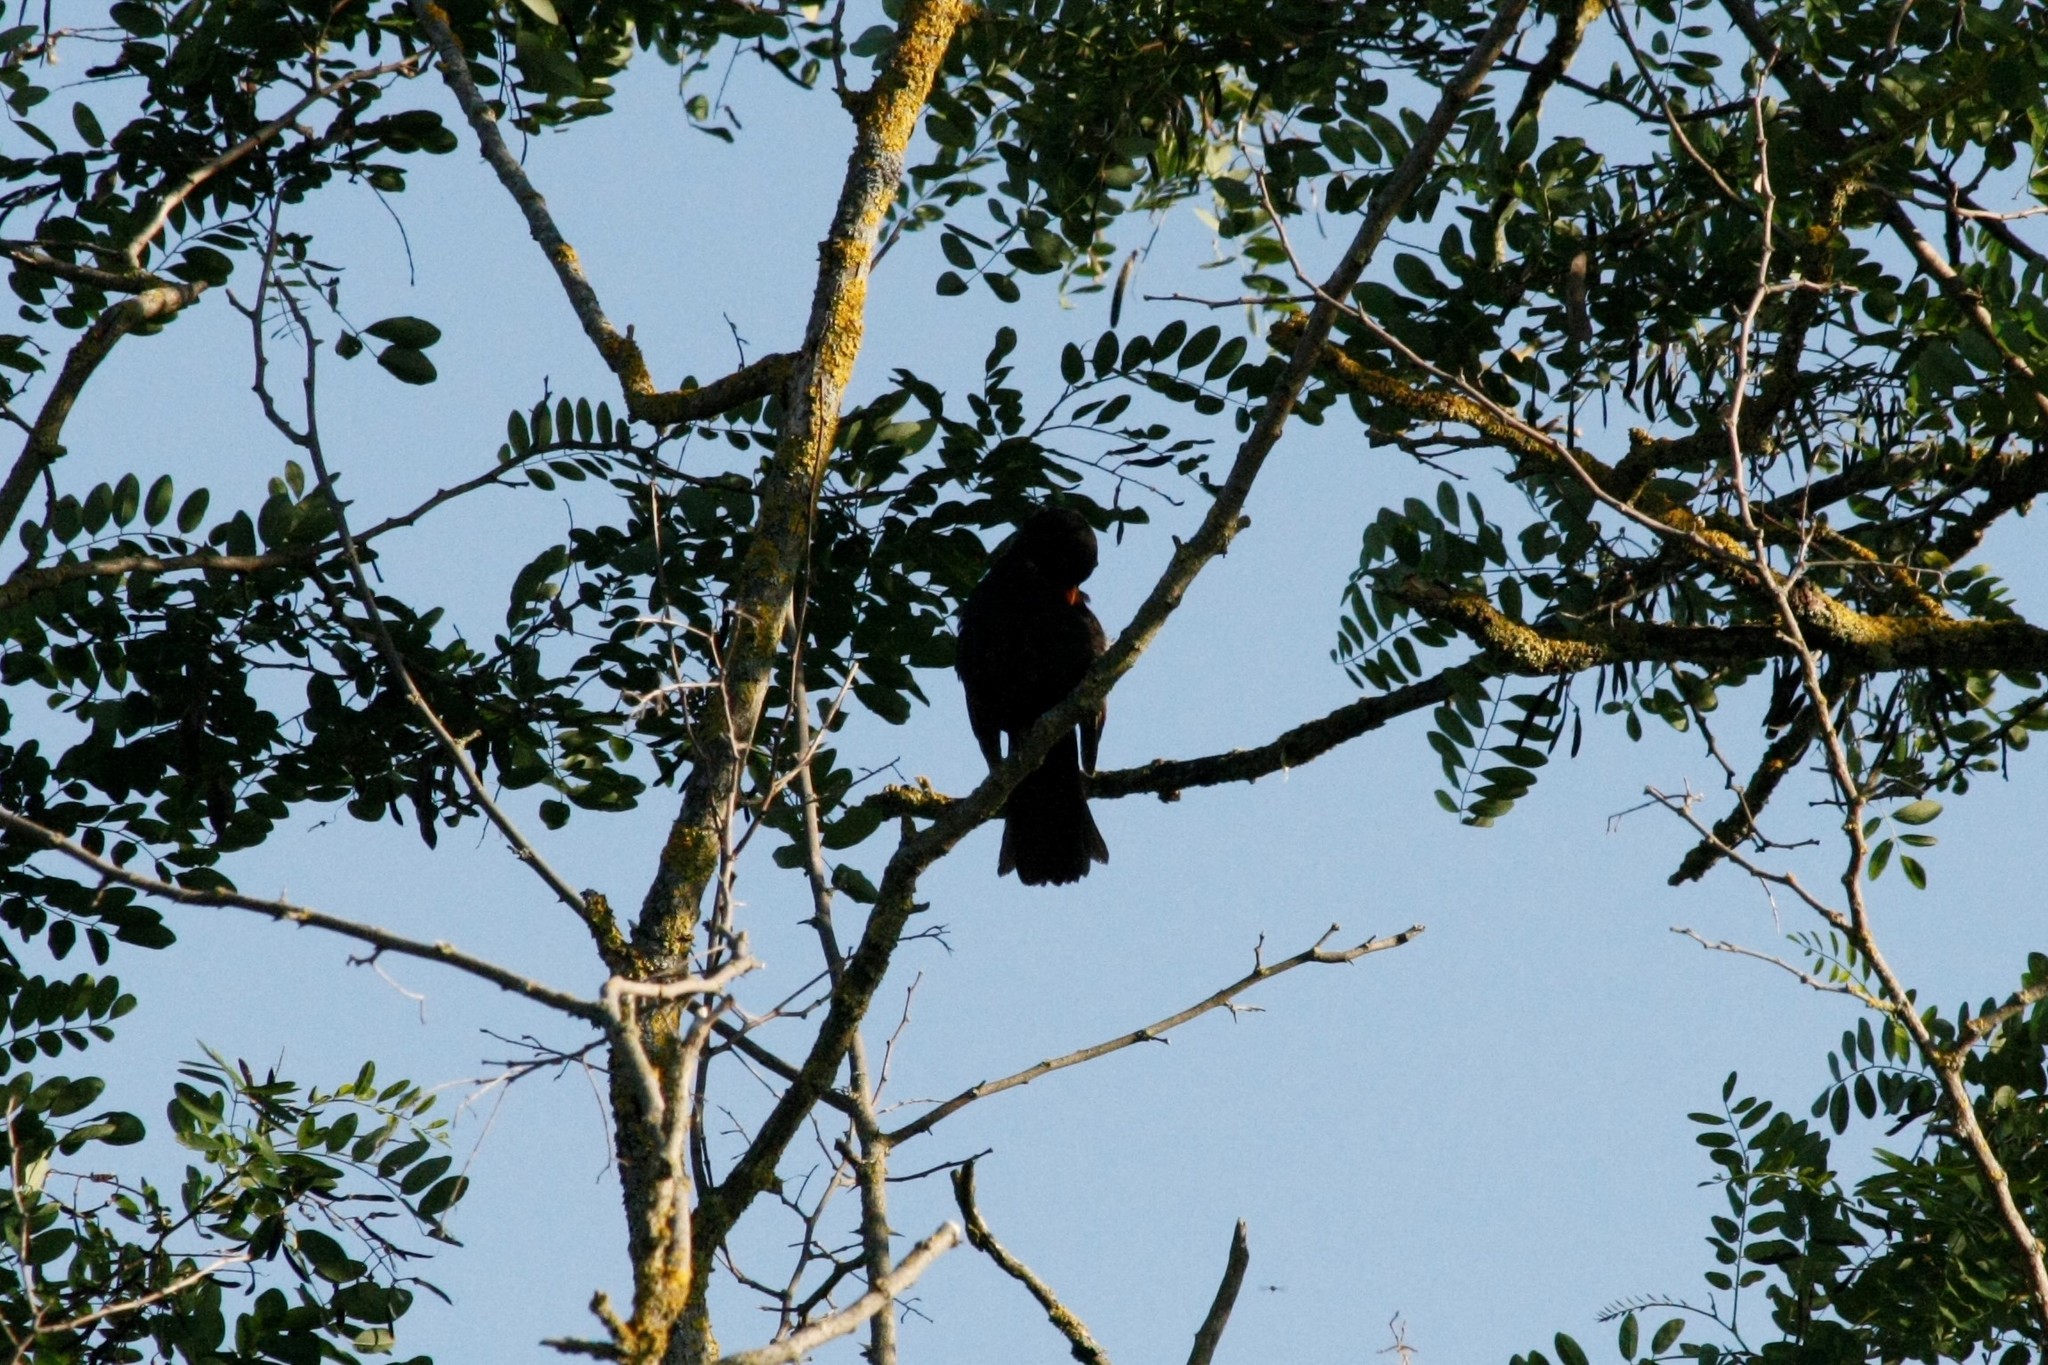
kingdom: Animalia
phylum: Chordata
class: Aves
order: Passeriformes
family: Turdidae
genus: Turdus
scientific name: Turdus merula
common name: Common blackbird
